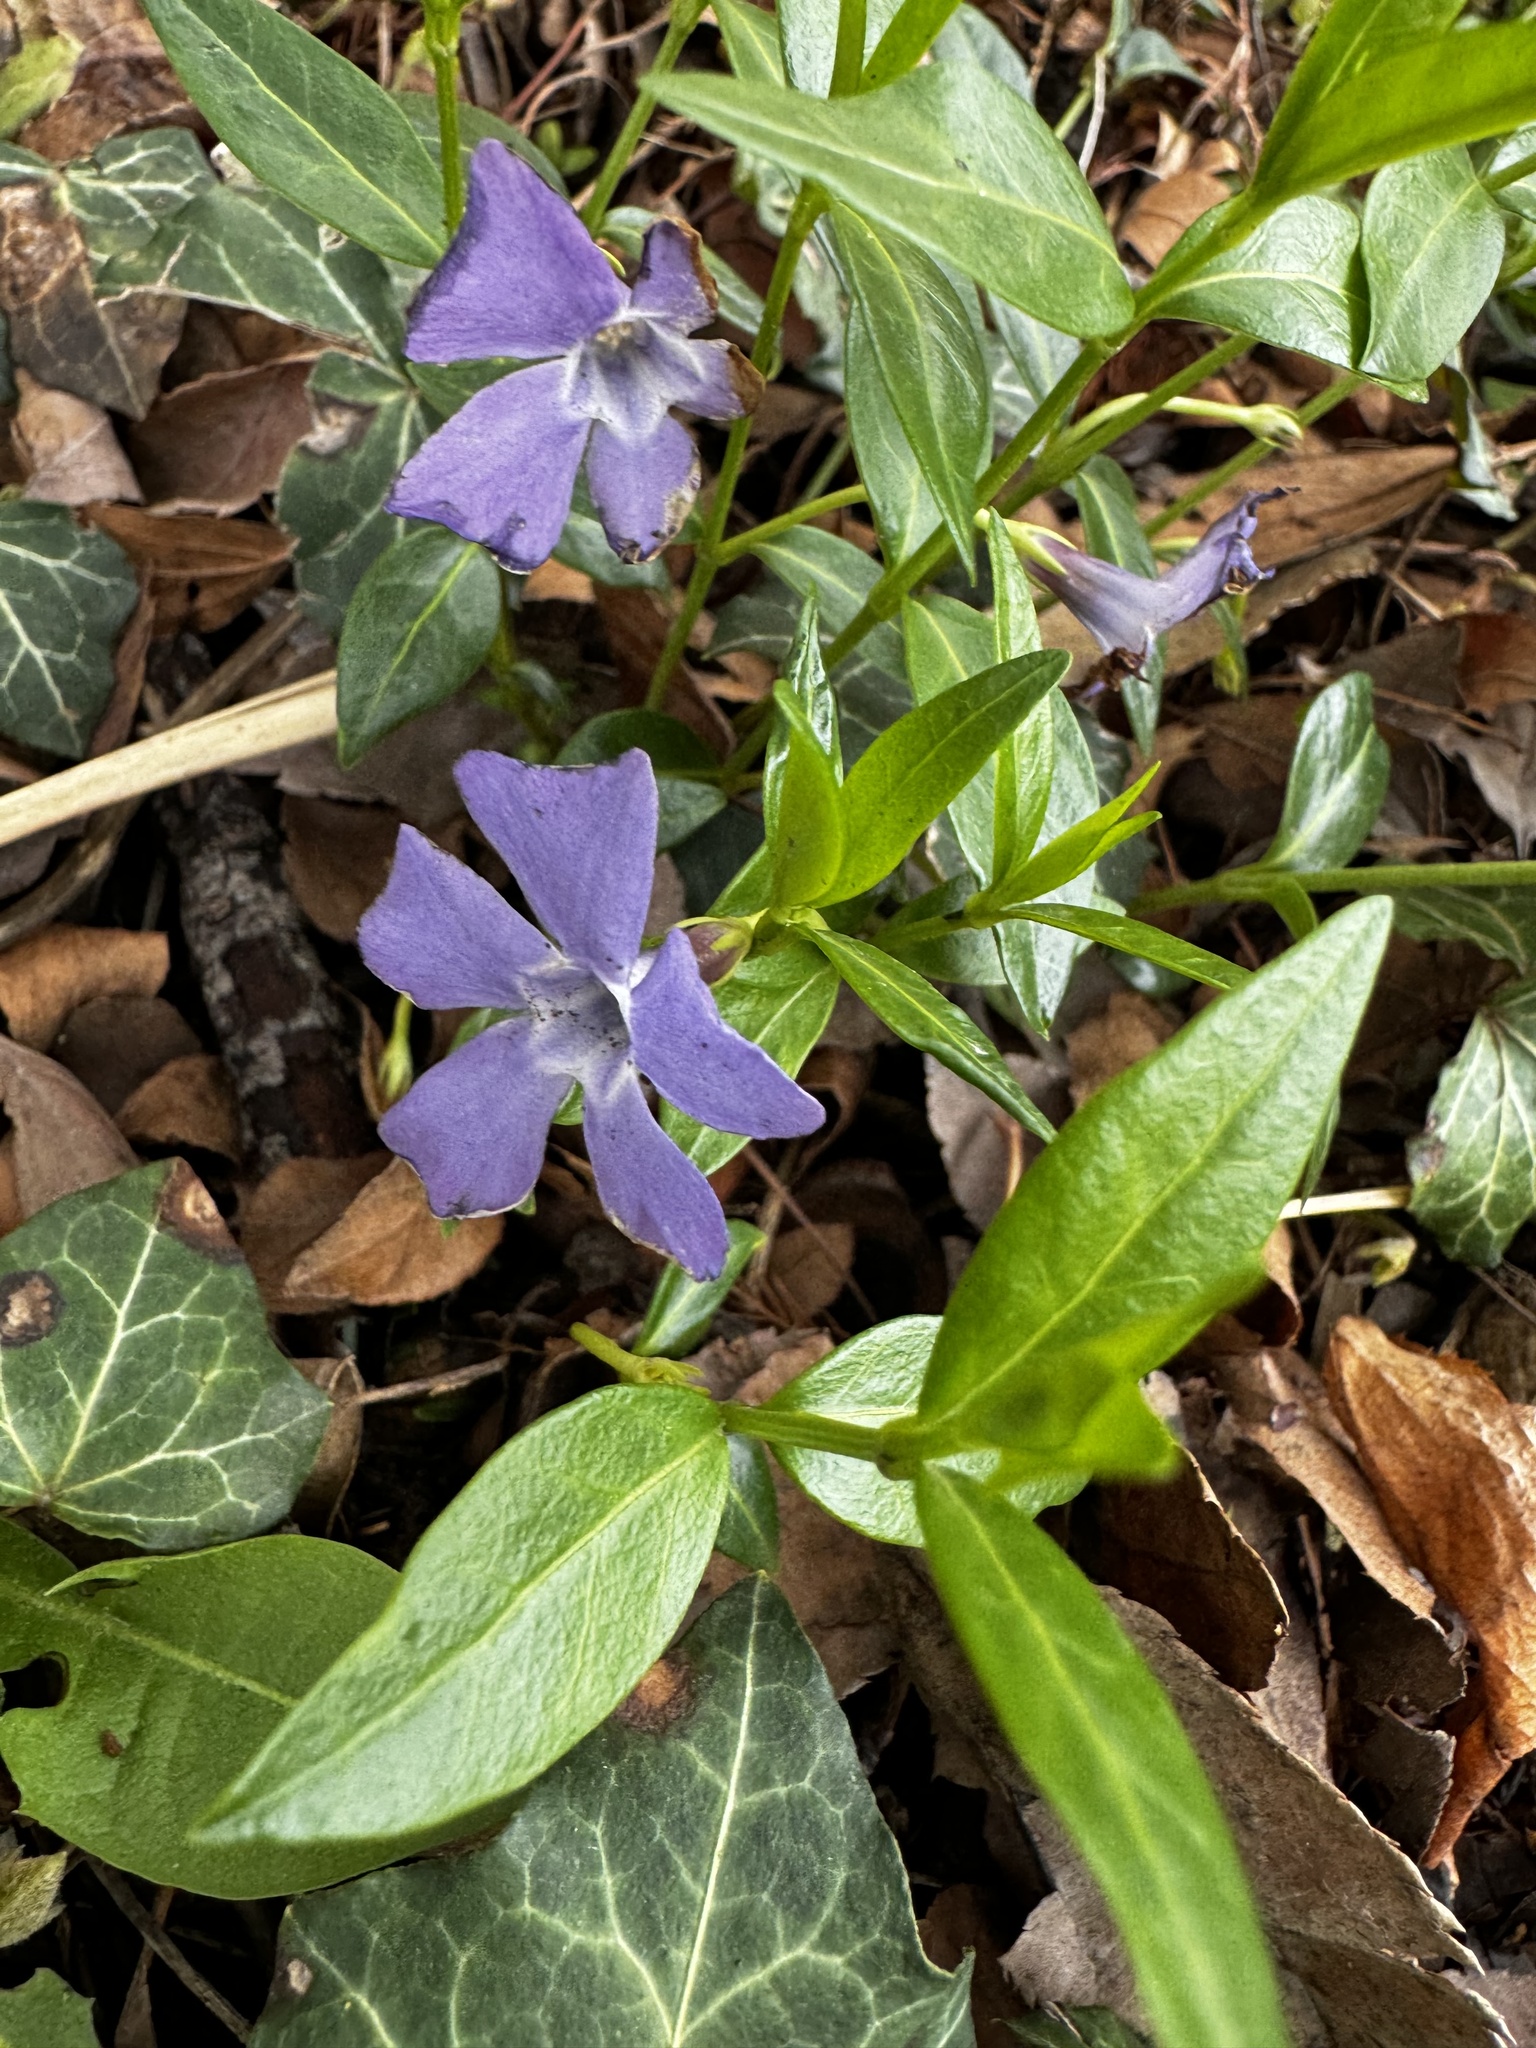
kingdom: Plantae
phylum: Tracheophyta
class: Magnoliopsida
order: Gentianales
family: Apocynaceae
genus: Vinca
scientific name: Vinca minor
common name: Lesser periwinkle
